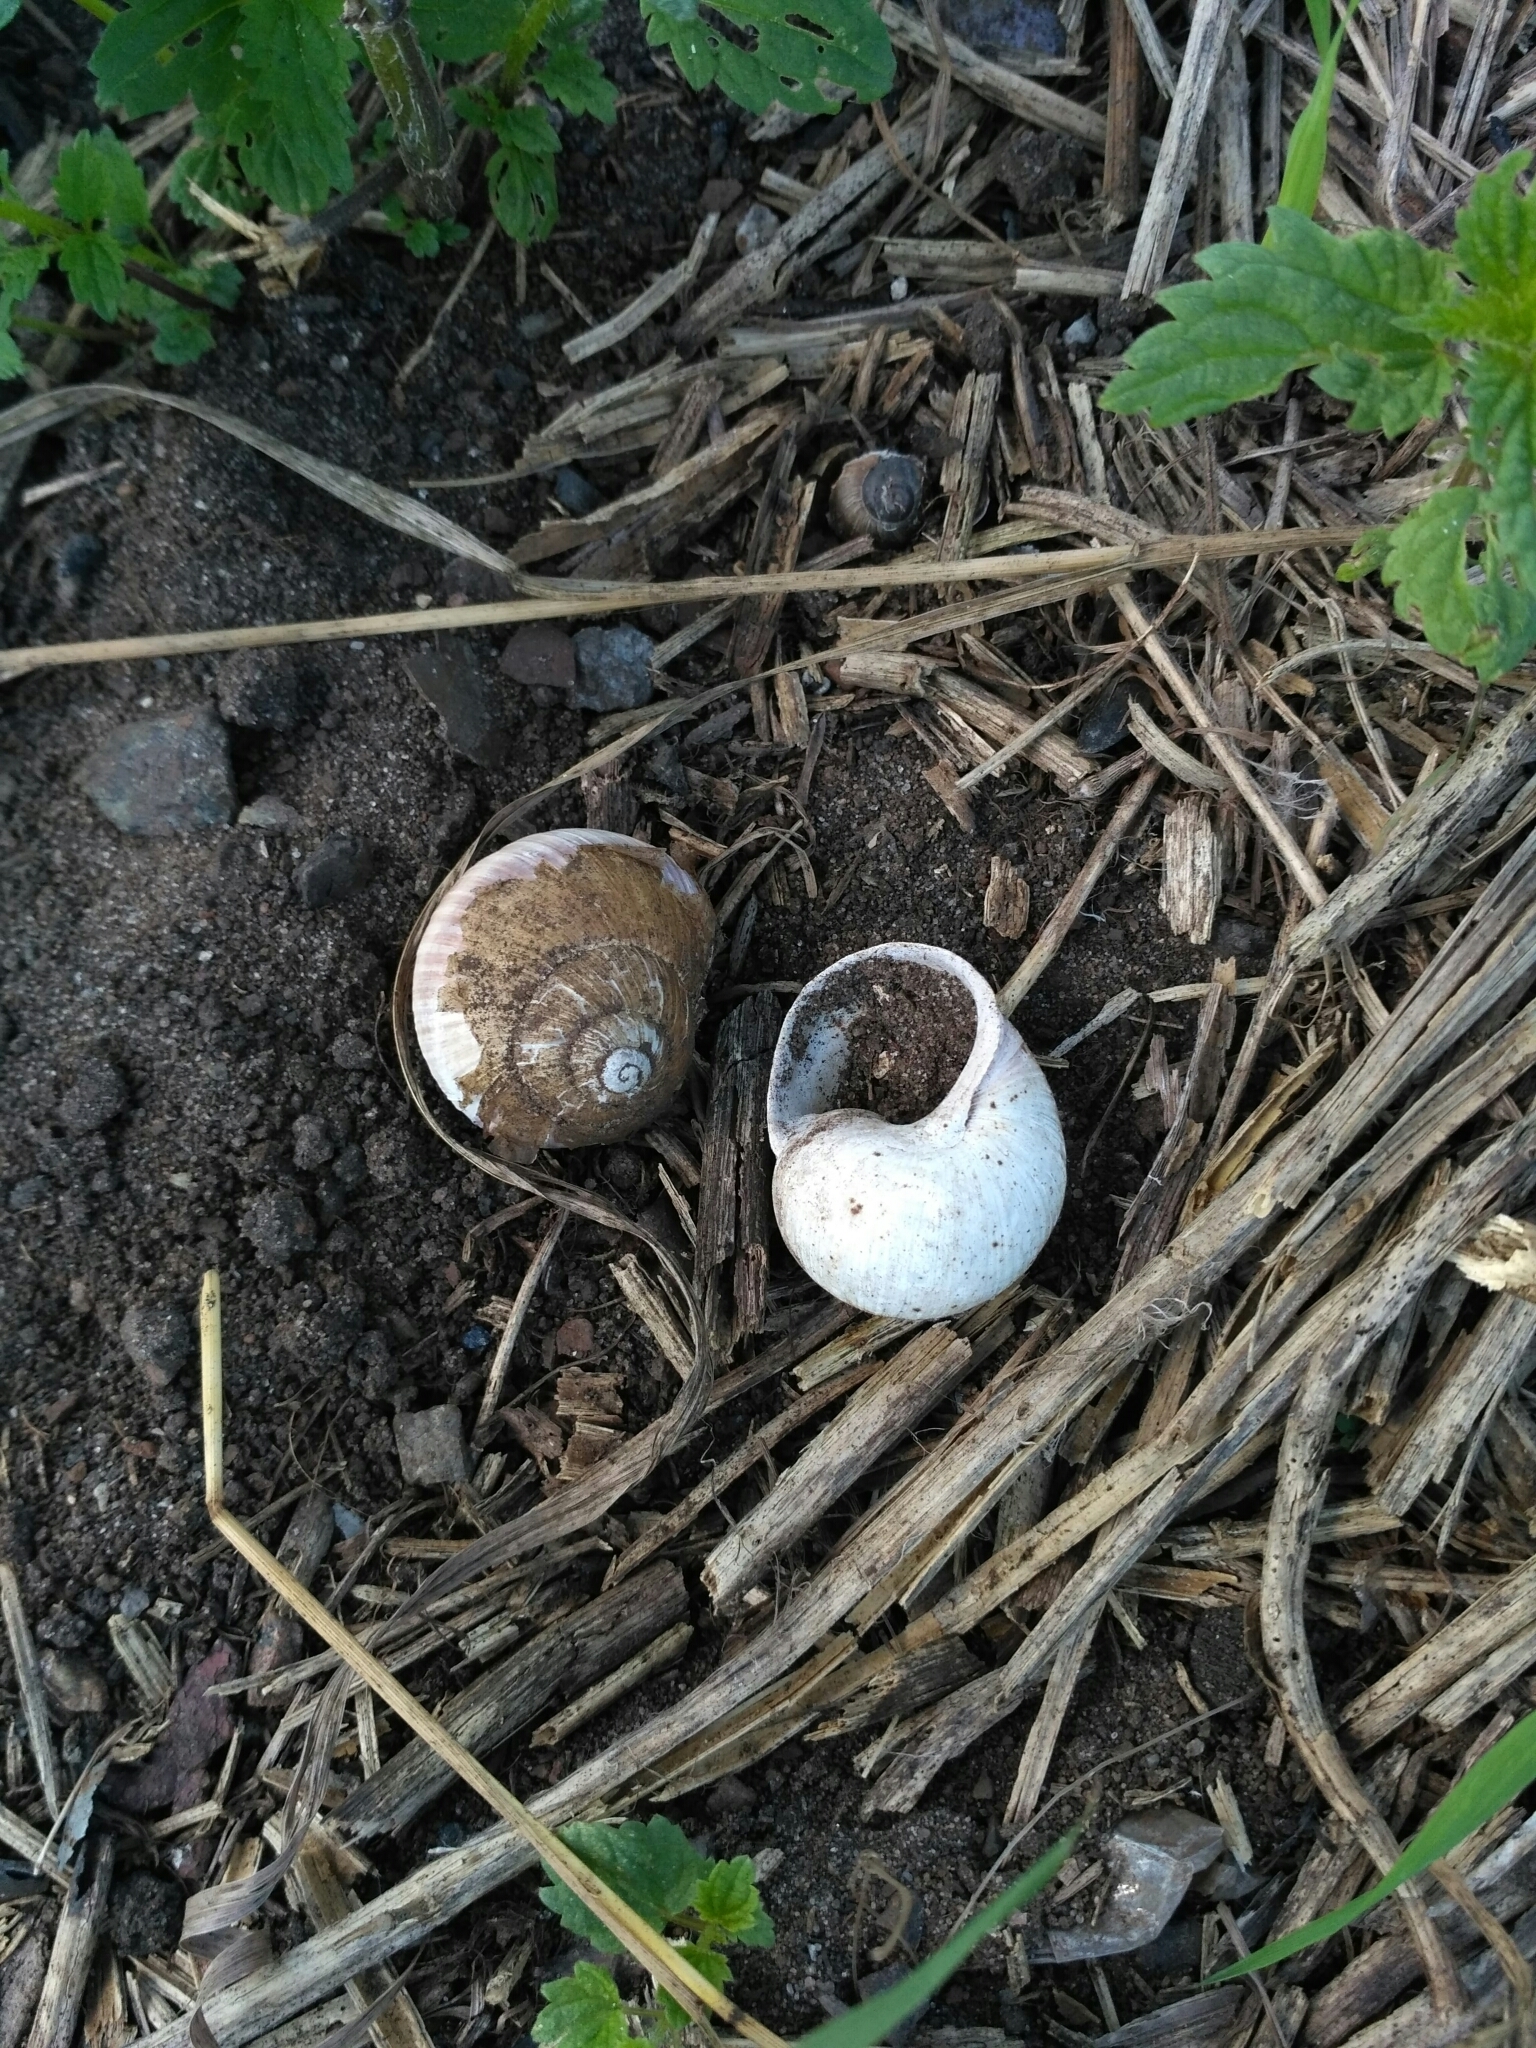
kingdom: Animalia
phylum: Mollusca
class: Gastropoda
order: Stylommatophora
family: Helicidae
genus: Helix
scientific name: Helix pomatia
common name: Roman snail
